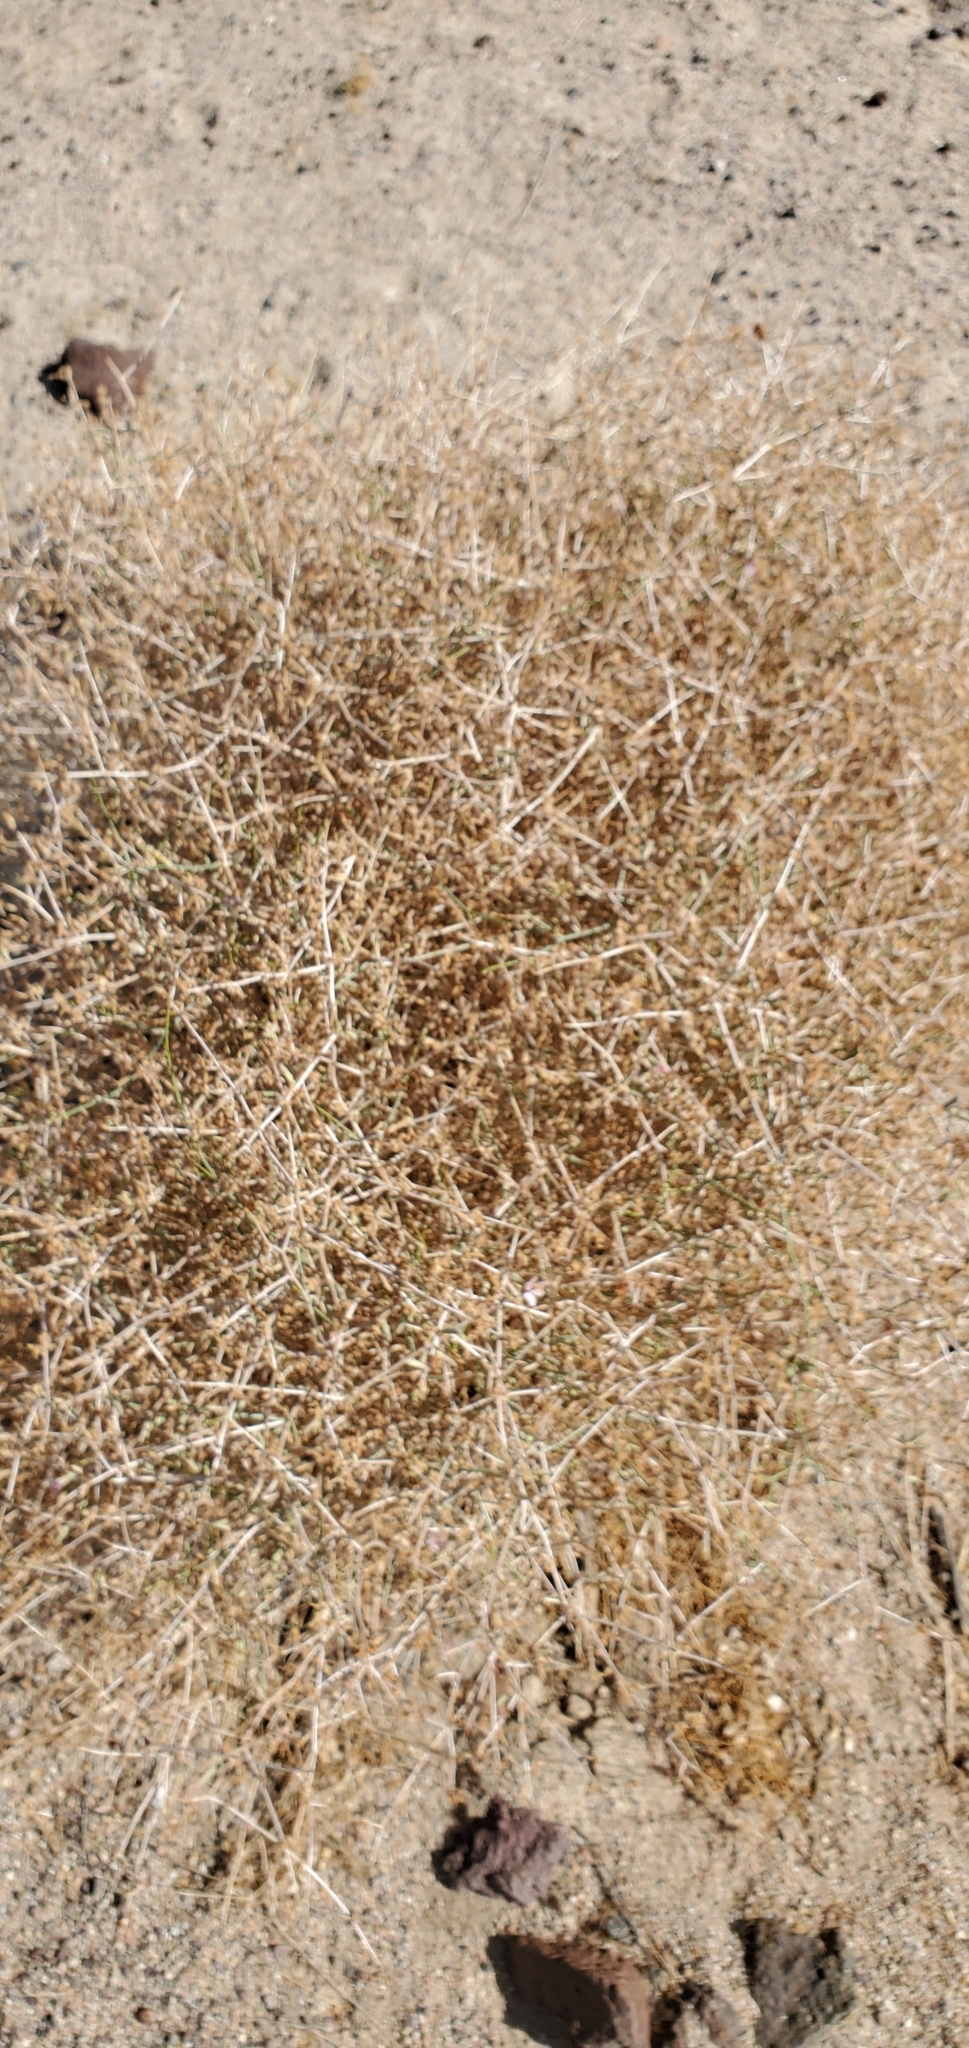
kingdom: Plantae
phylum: Tracheophyta
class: Magnoliopsida
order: Asterales
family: Asteraceae
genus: Stephanomeria
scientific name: Stephanomeria pauciflora
